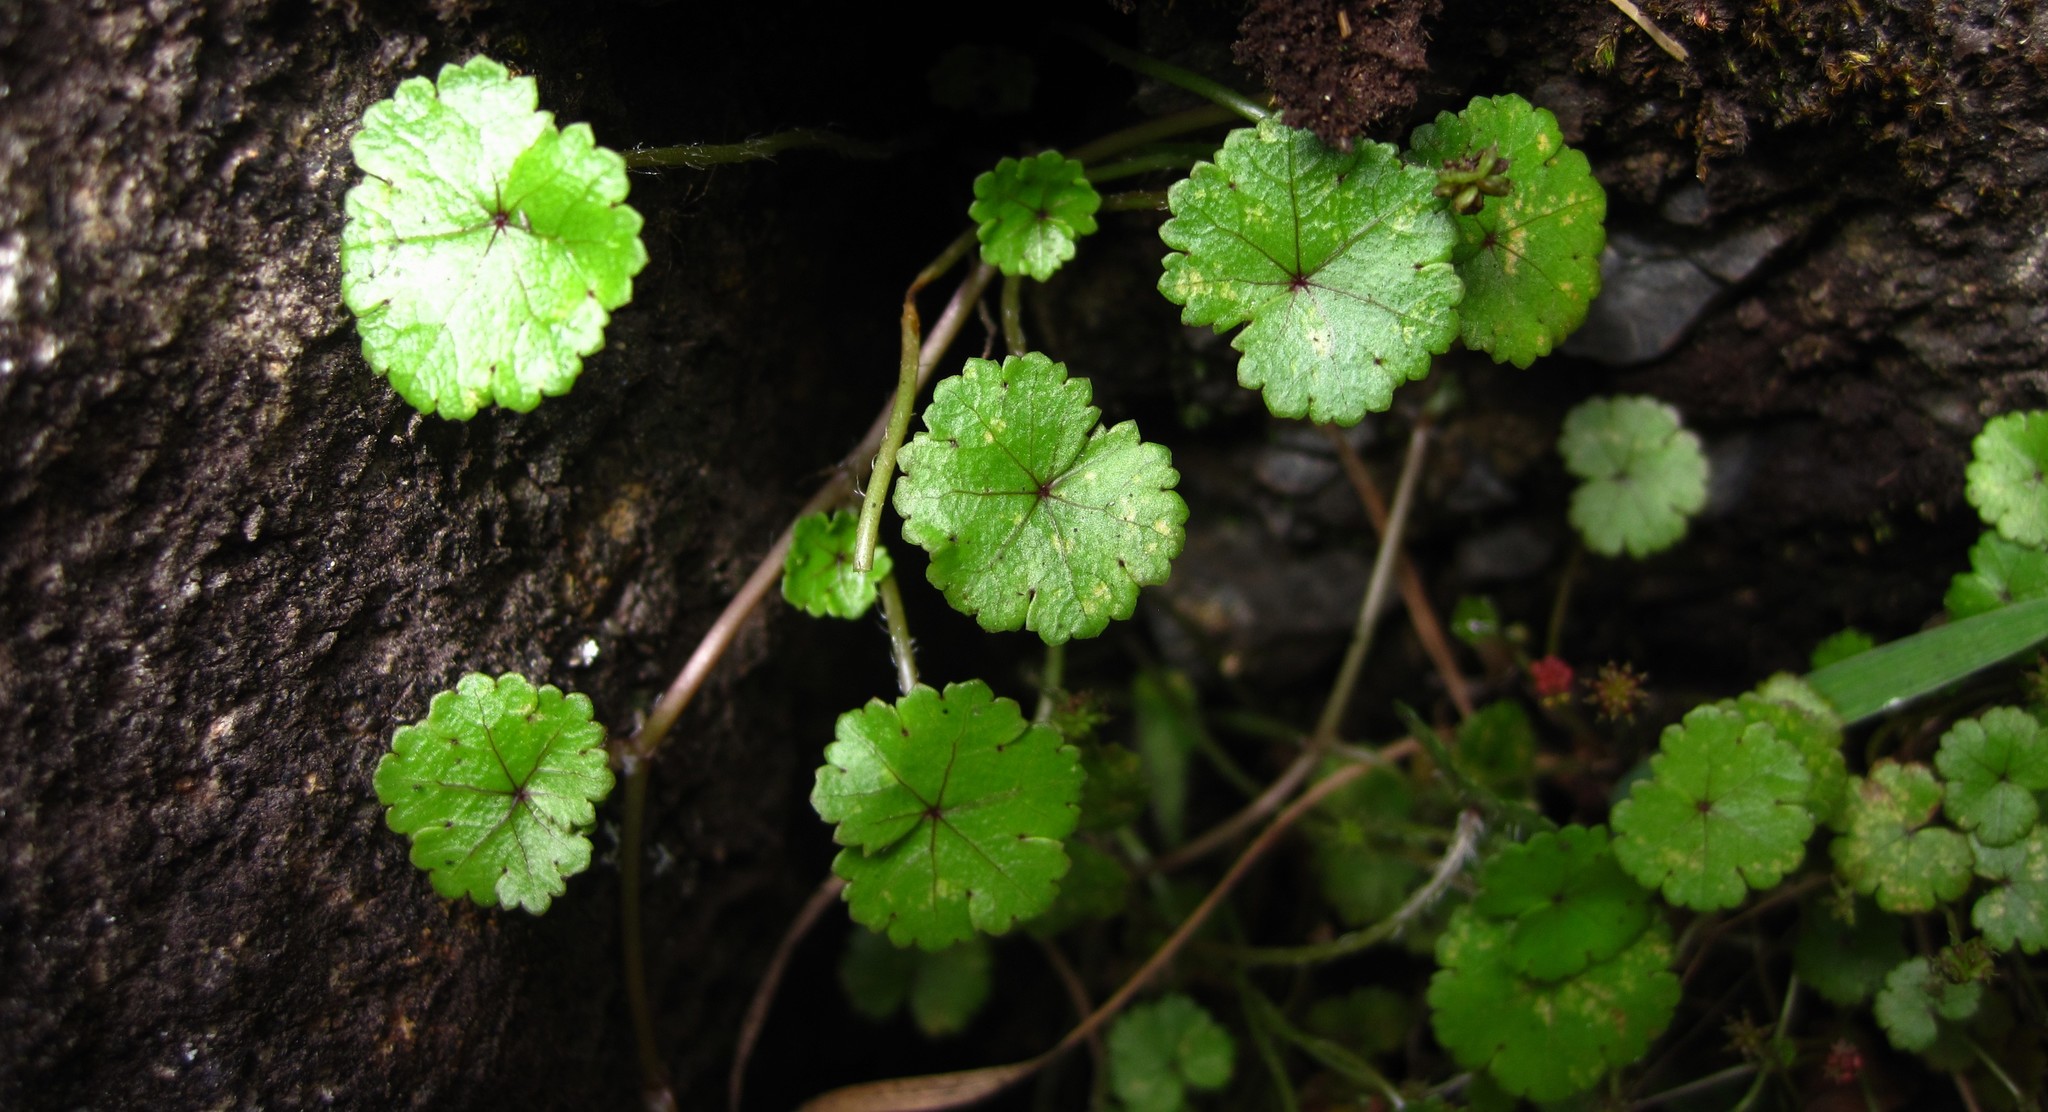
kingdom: Plantae
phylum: Tracheophyta
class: Magnoliopsida
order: Apiales
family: Araliaceae
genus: Hydrocotyle
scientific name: Hydrocotyle microphylla
